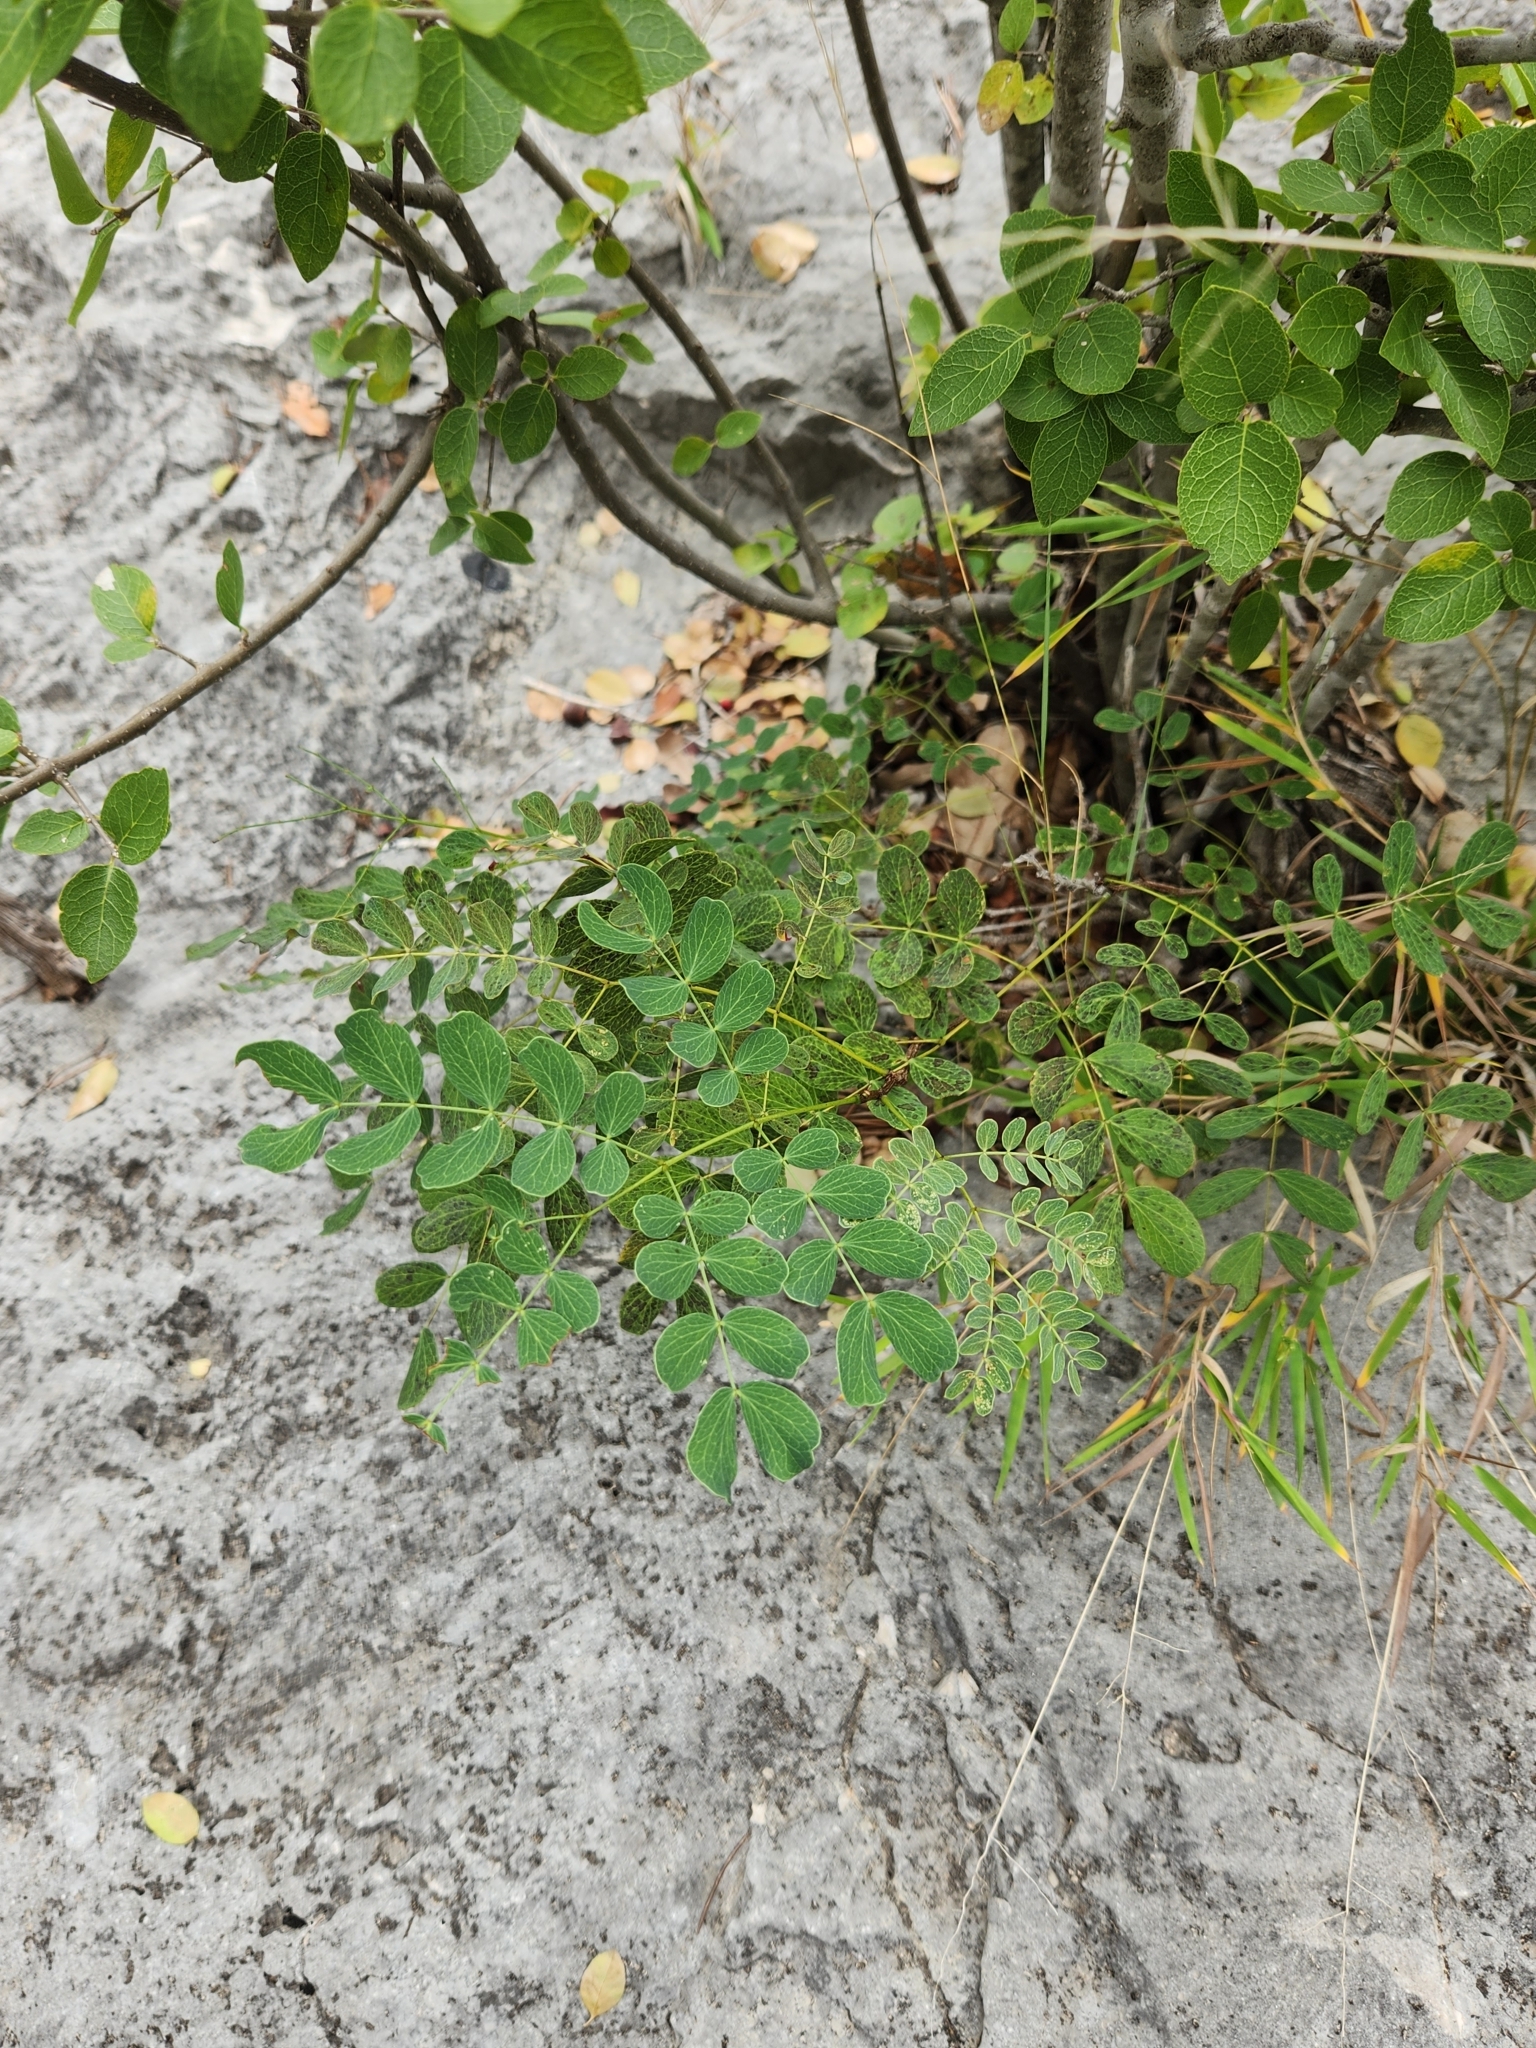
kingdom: Plantae
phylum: Tracheophyta
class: Magnoliopsida
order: Fabales
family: Fabaceae
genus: Leucaena
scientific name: Leucaena retusa
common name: Littleleaf leadtree
